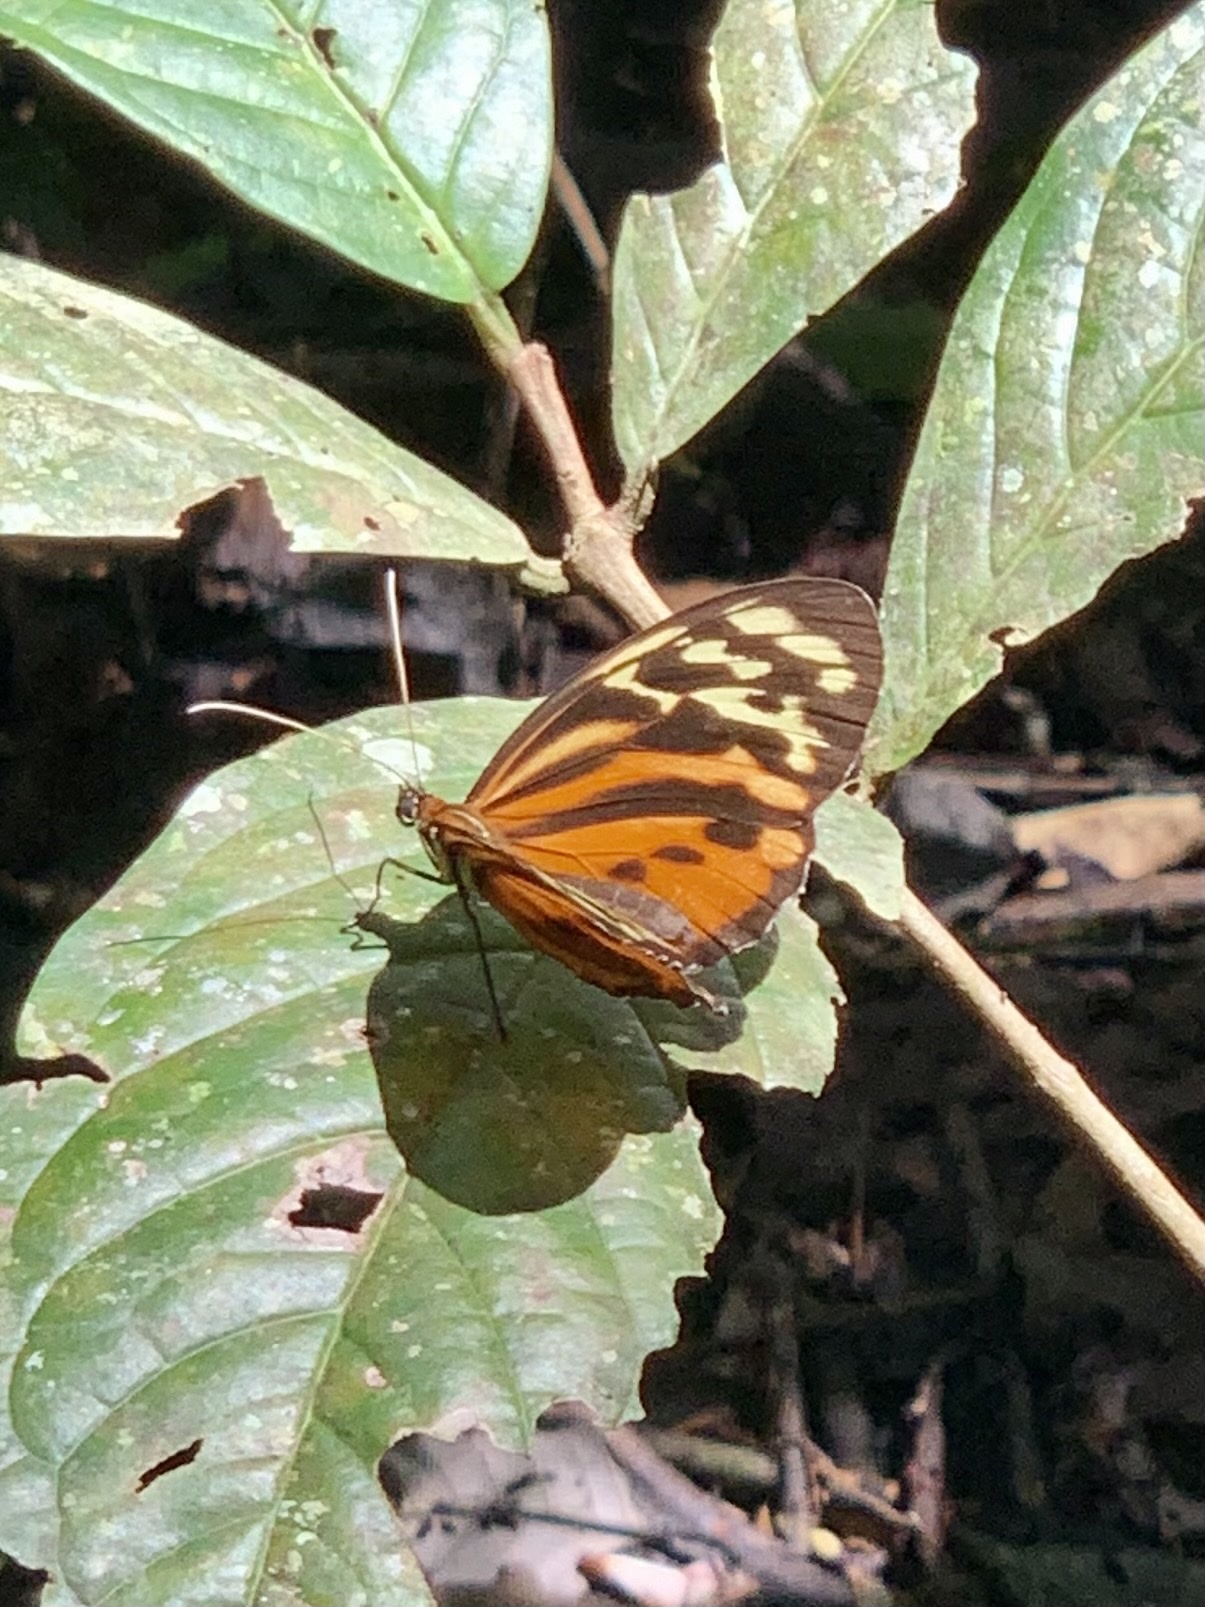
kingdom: Animalia
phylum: Arthropoda
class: Insecta
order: Lepidoptera
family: Nymphalidae
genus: Tithorea
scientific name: Tithorea harmonia
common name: Harmonia tigerwing
